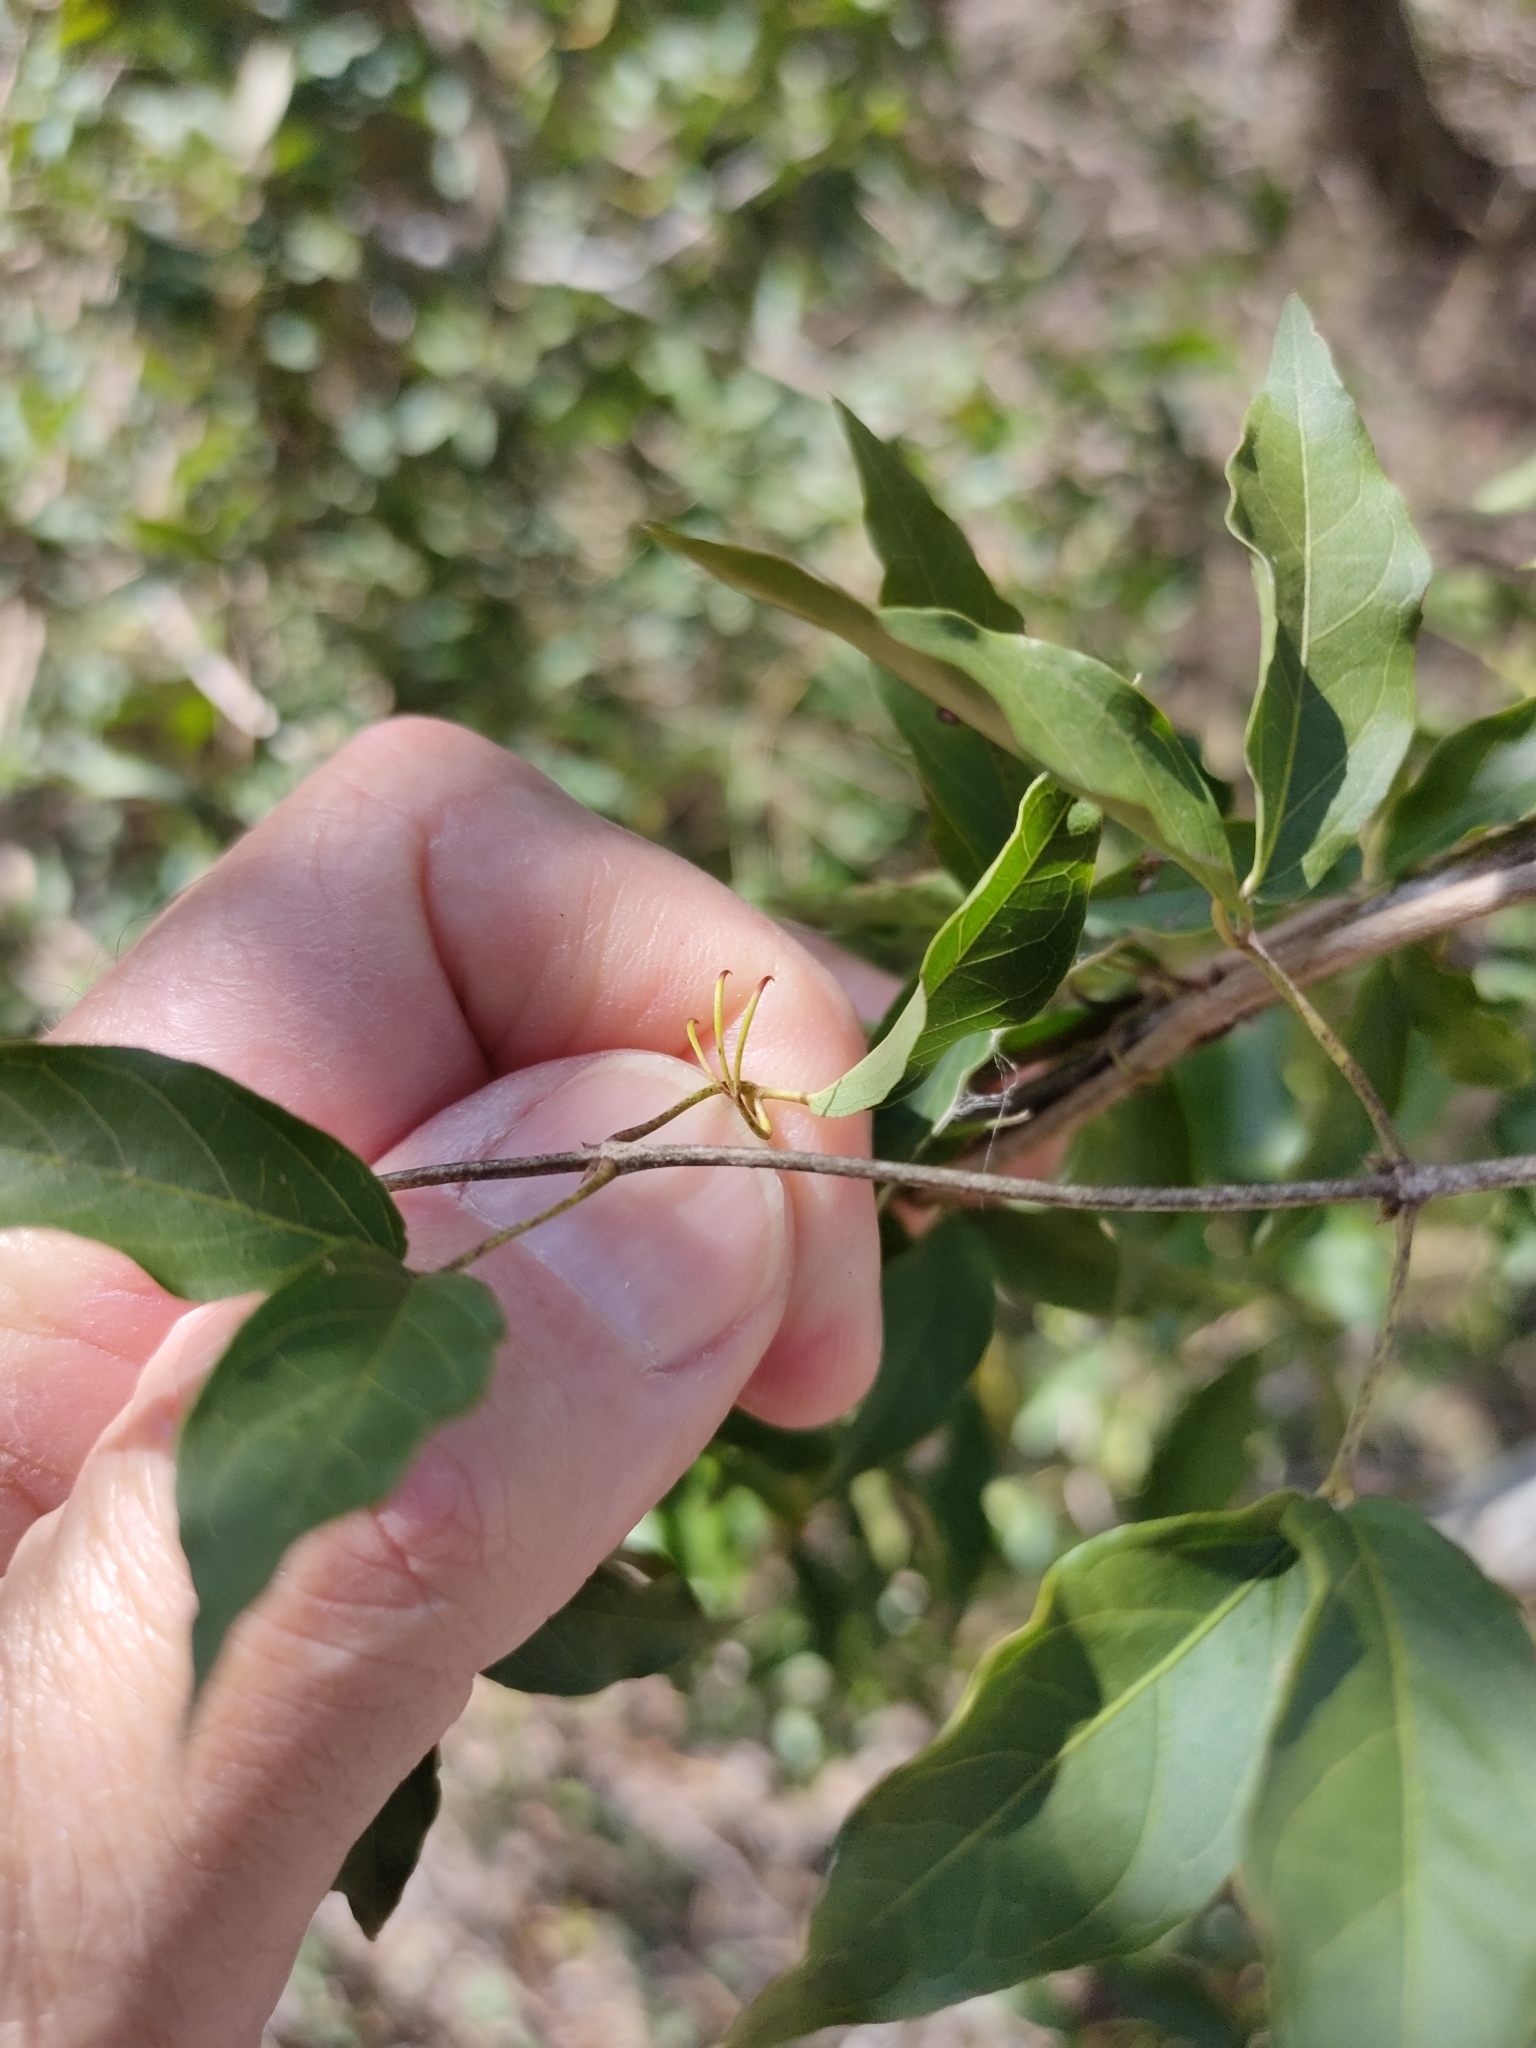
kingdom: Plantae
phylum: Tracheophyta
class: Magnoliopsida
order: Lamiales
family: Bignoniaceae
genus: Dolichandra
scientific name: Dolichandra unguis-cati
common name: Catclaw vine
